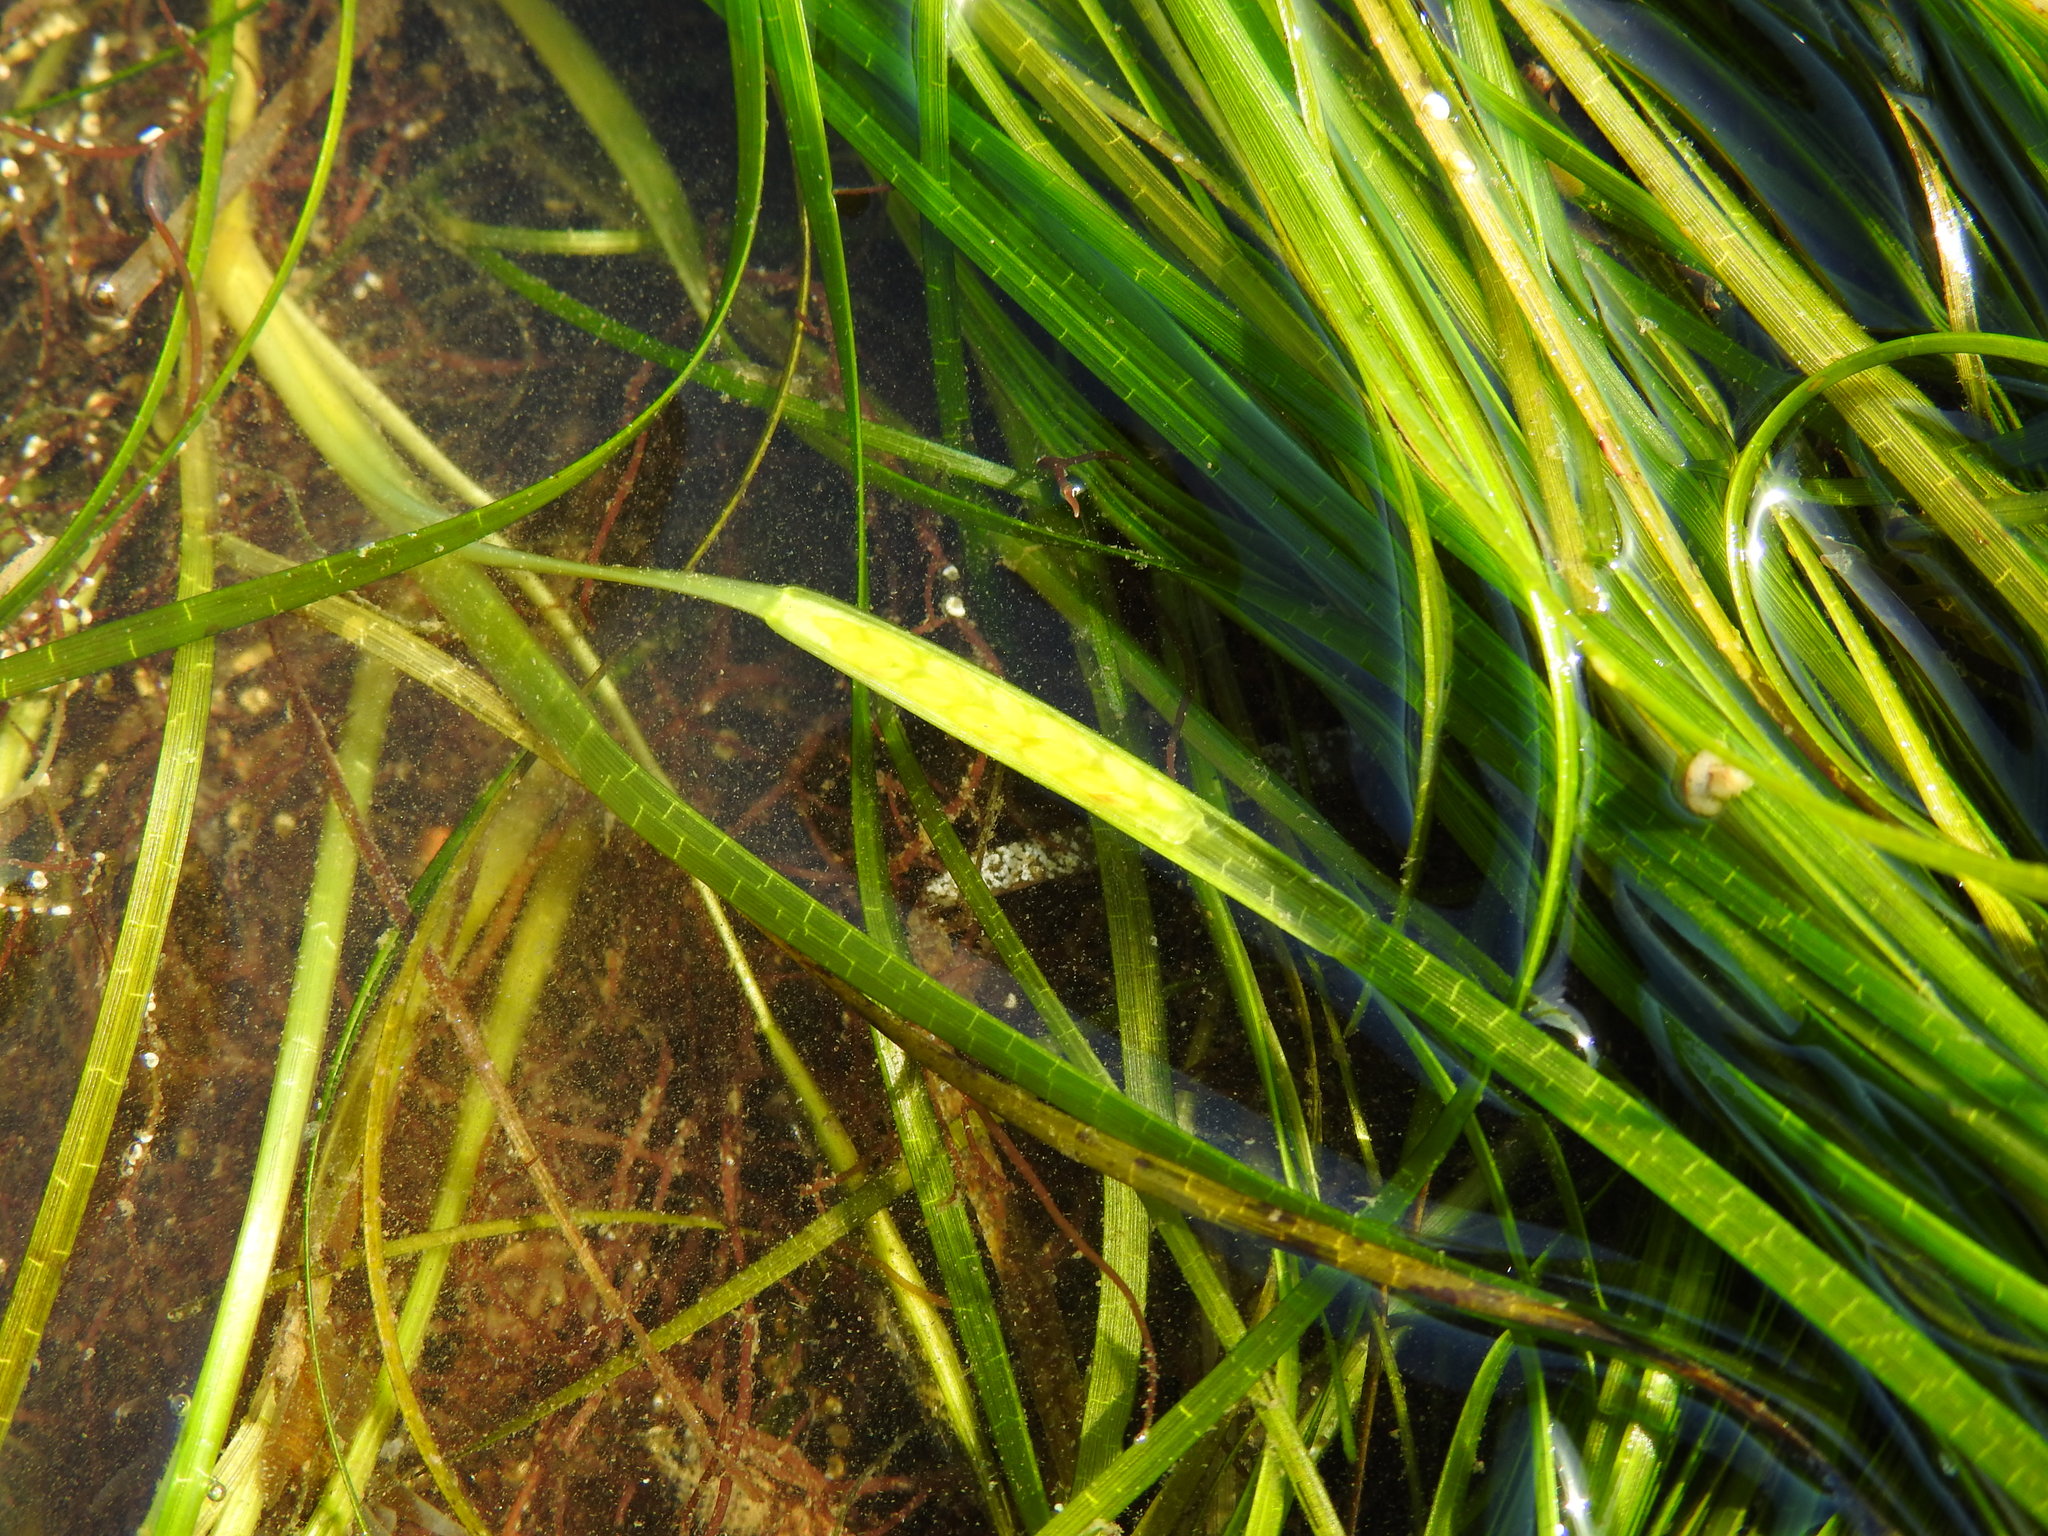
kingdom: Plantae
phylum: Tracheophyta
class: Liliopsida
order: Alismatales
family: Zosteraceae
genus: Zostera
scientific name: Zostera noltii
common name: Dwarf eelgrass
